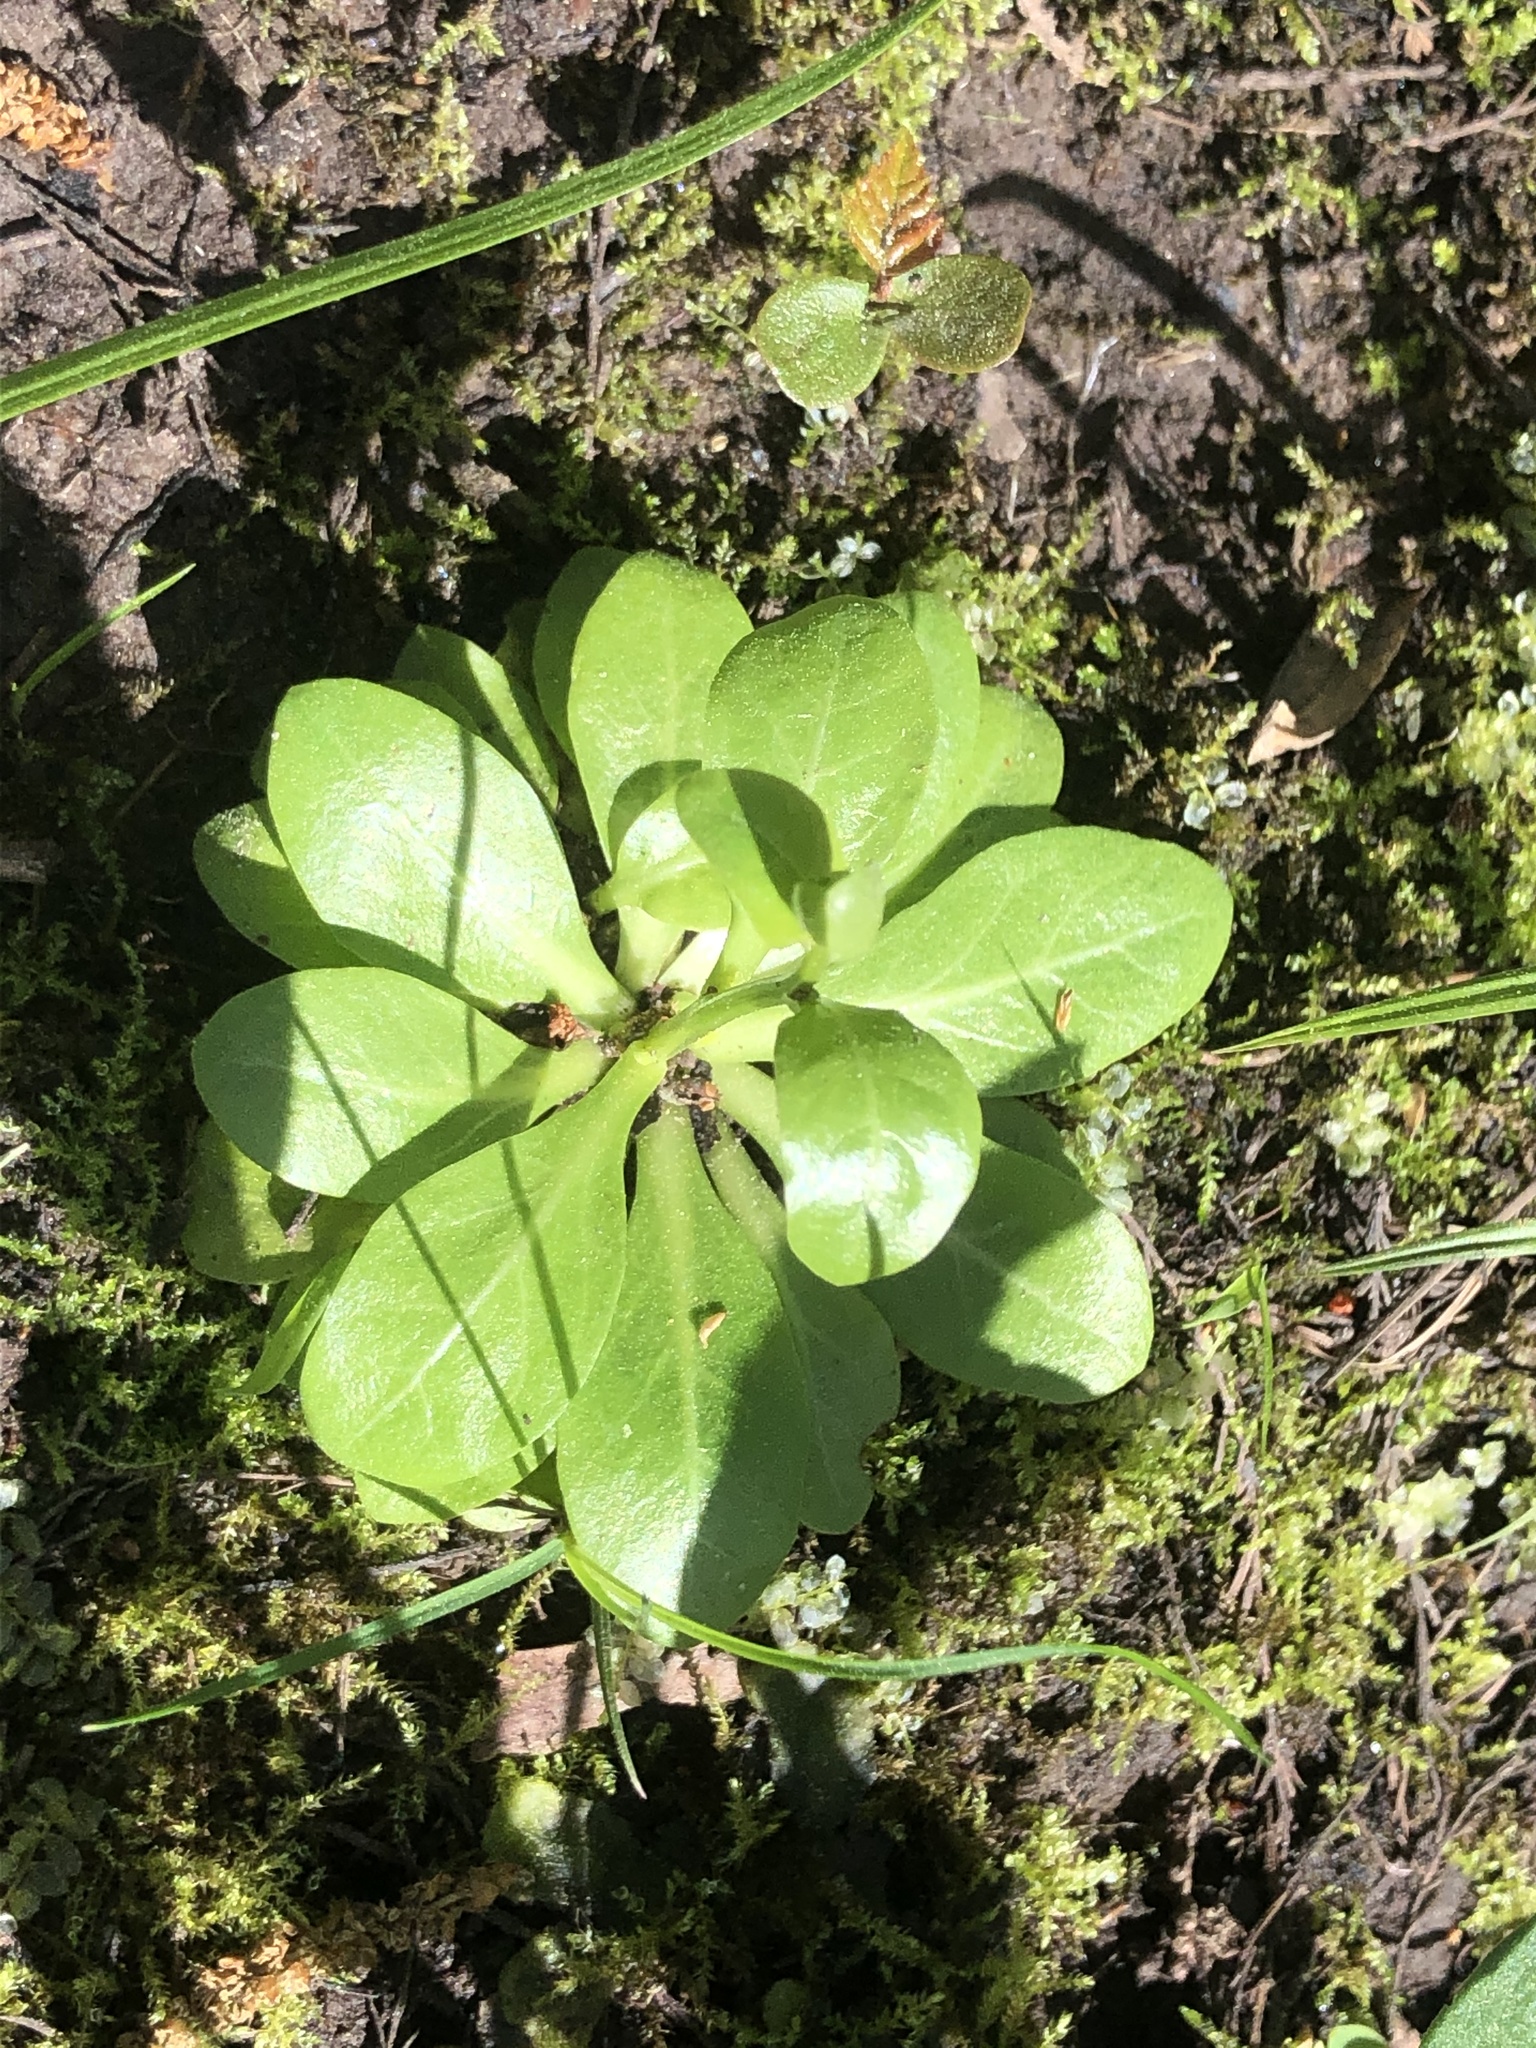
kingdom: Plantae
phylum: Tracheophyta
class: Magnoliopsida
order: Ericales
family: Primulaceae
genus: Samolus
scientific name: Samolus parviflorus
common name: False water pimpernel
